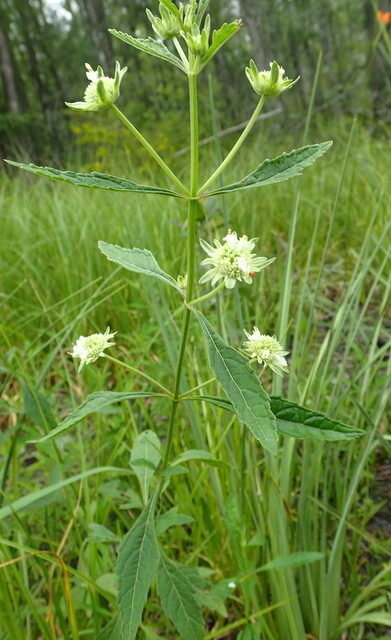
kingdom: Plantae
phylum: Tracheophyta
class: Magnoliopsida
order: Lamiales
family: Lamiaceae
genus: Hyptis
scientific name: Hyptis alata
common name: Cluster bush-mint
